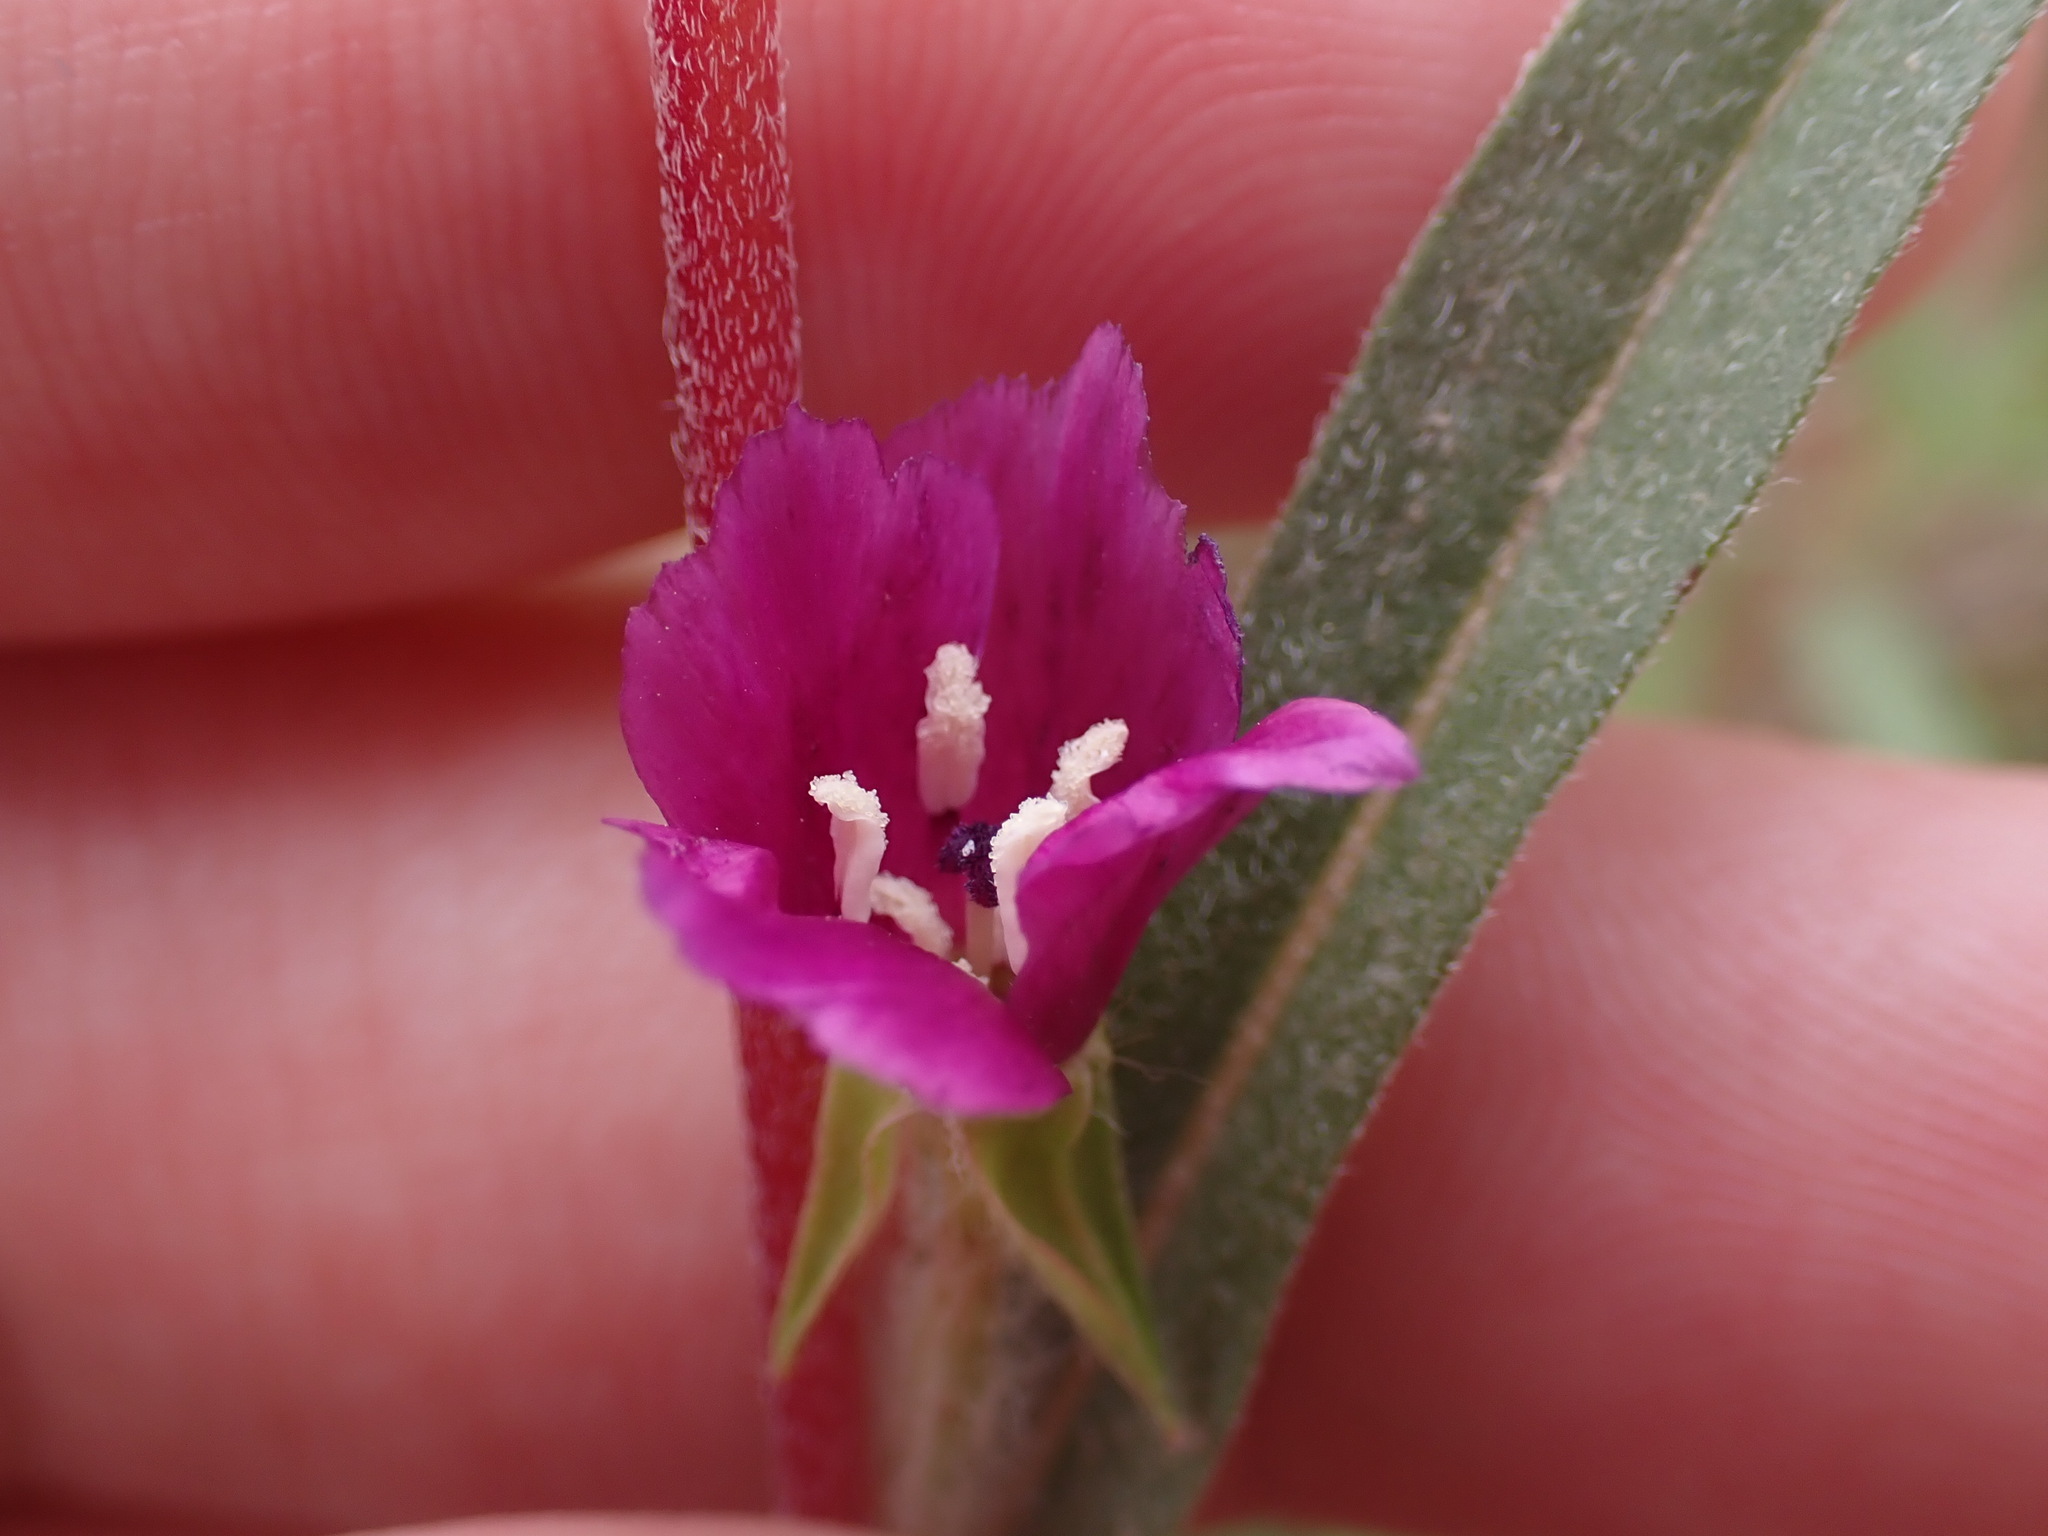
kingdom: Plantae
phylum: Tracheophyta
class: Magnoliopsida
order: Myrtales
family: Onagraceae
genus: Clarkia
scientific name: Clarkia purpurea
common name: Purple clarkia
